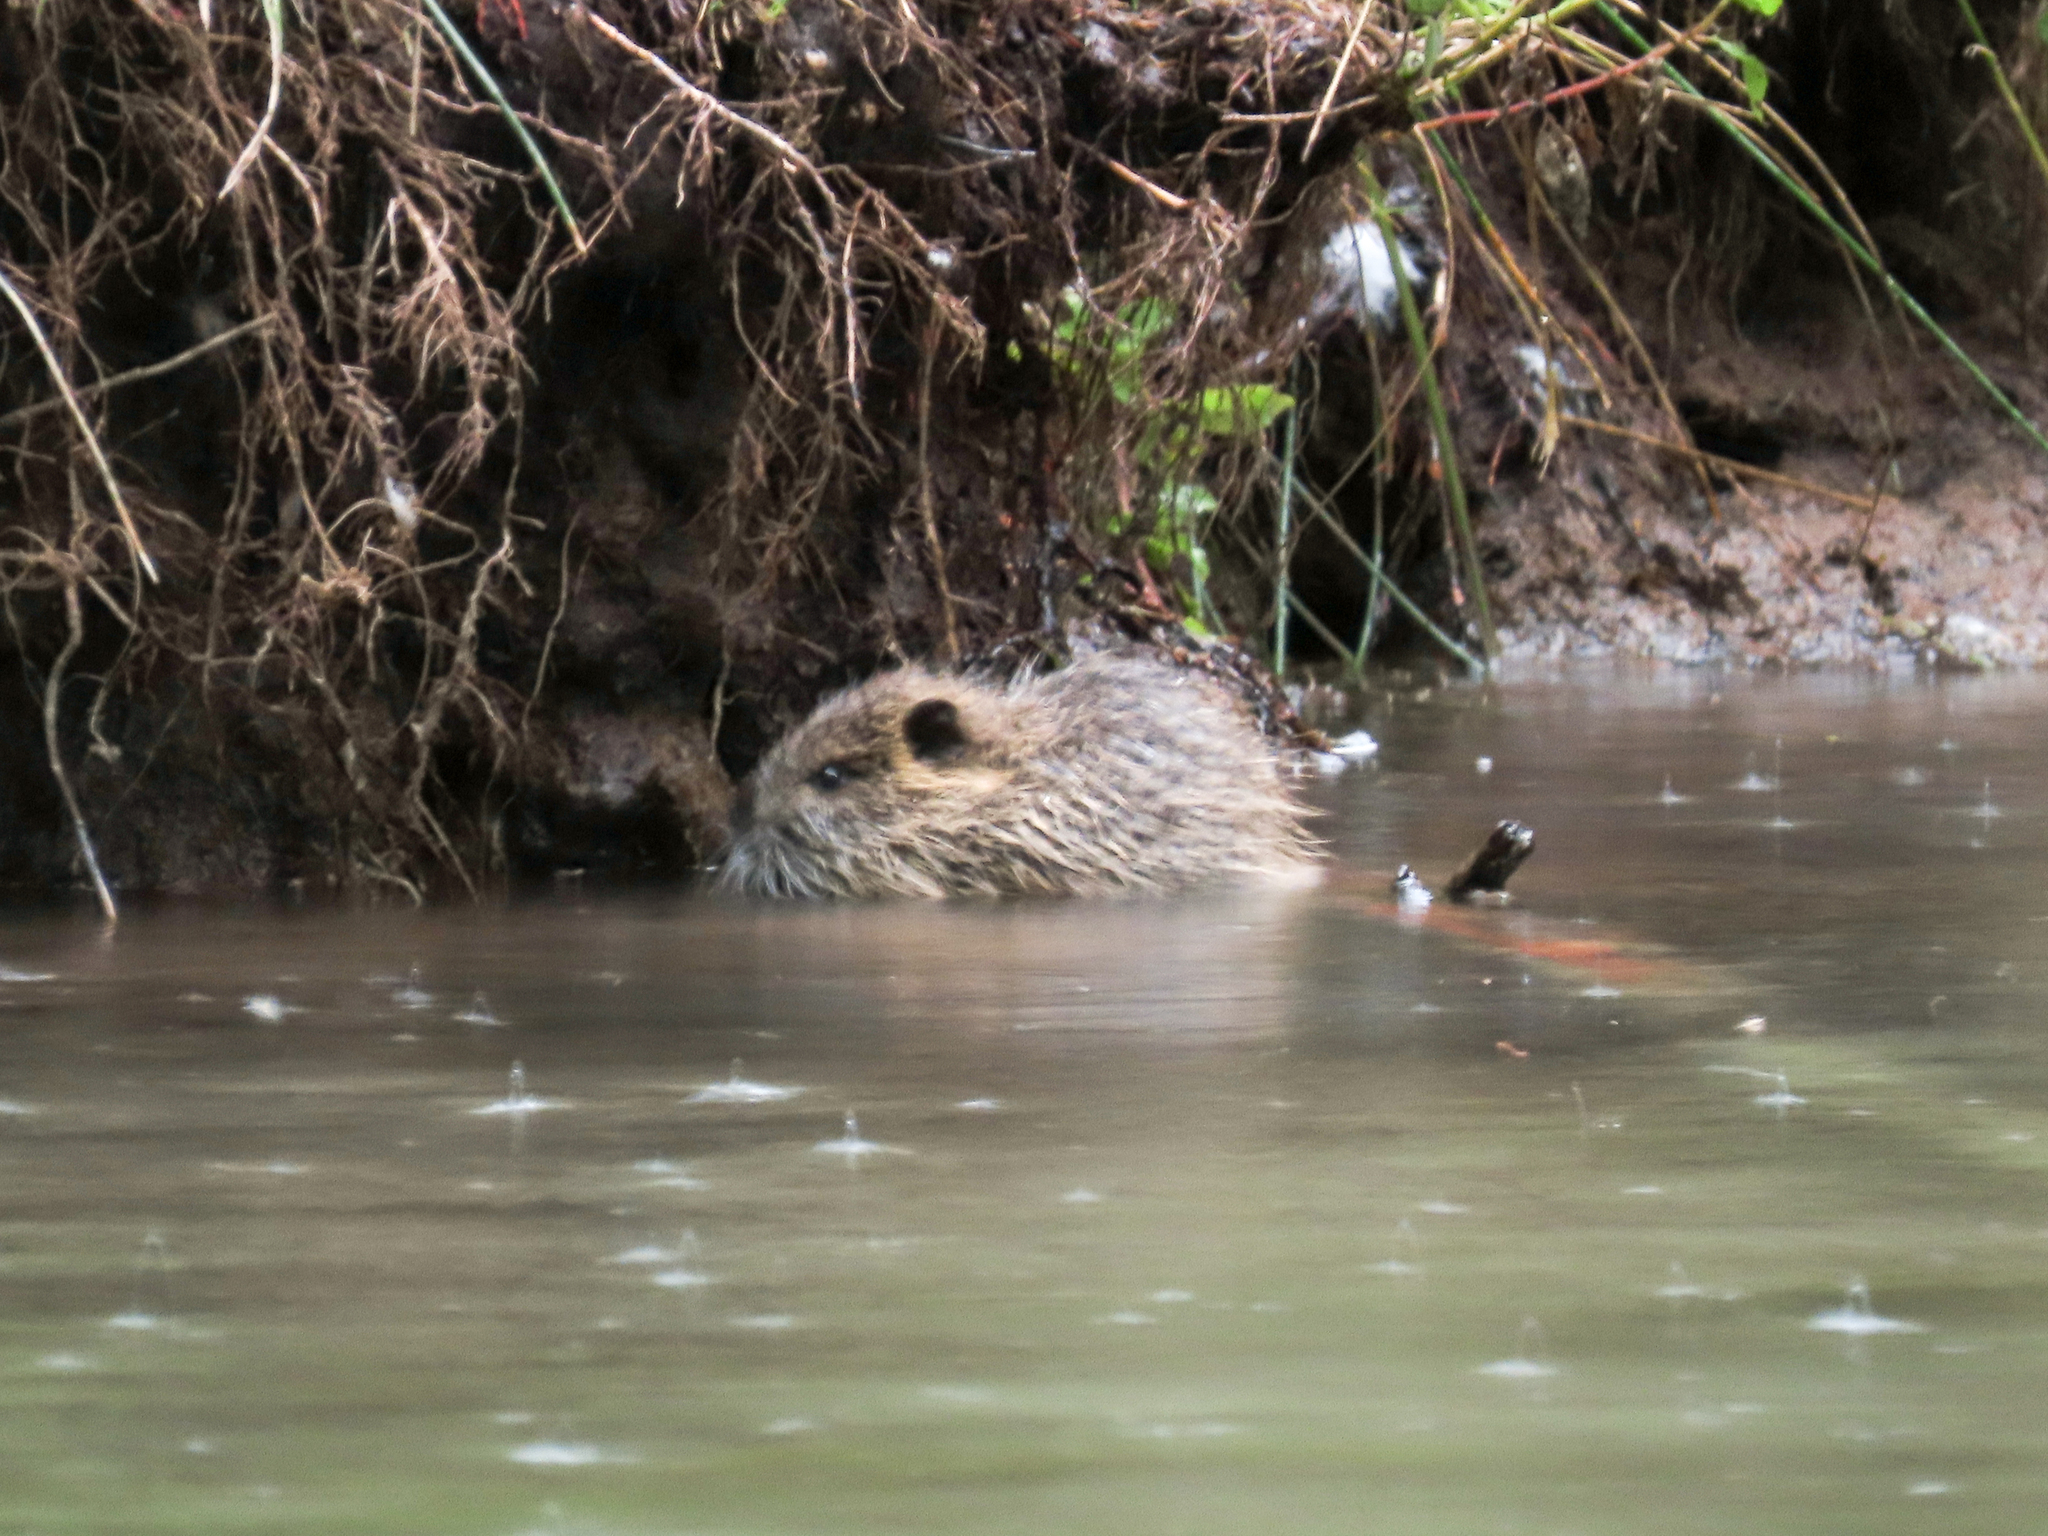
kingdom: Animalia
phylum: Chordata
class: Mammalia
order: Rodentia
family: Myocastoridae
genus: Myocastor
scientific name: Myocastor coypus
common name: Coypu
